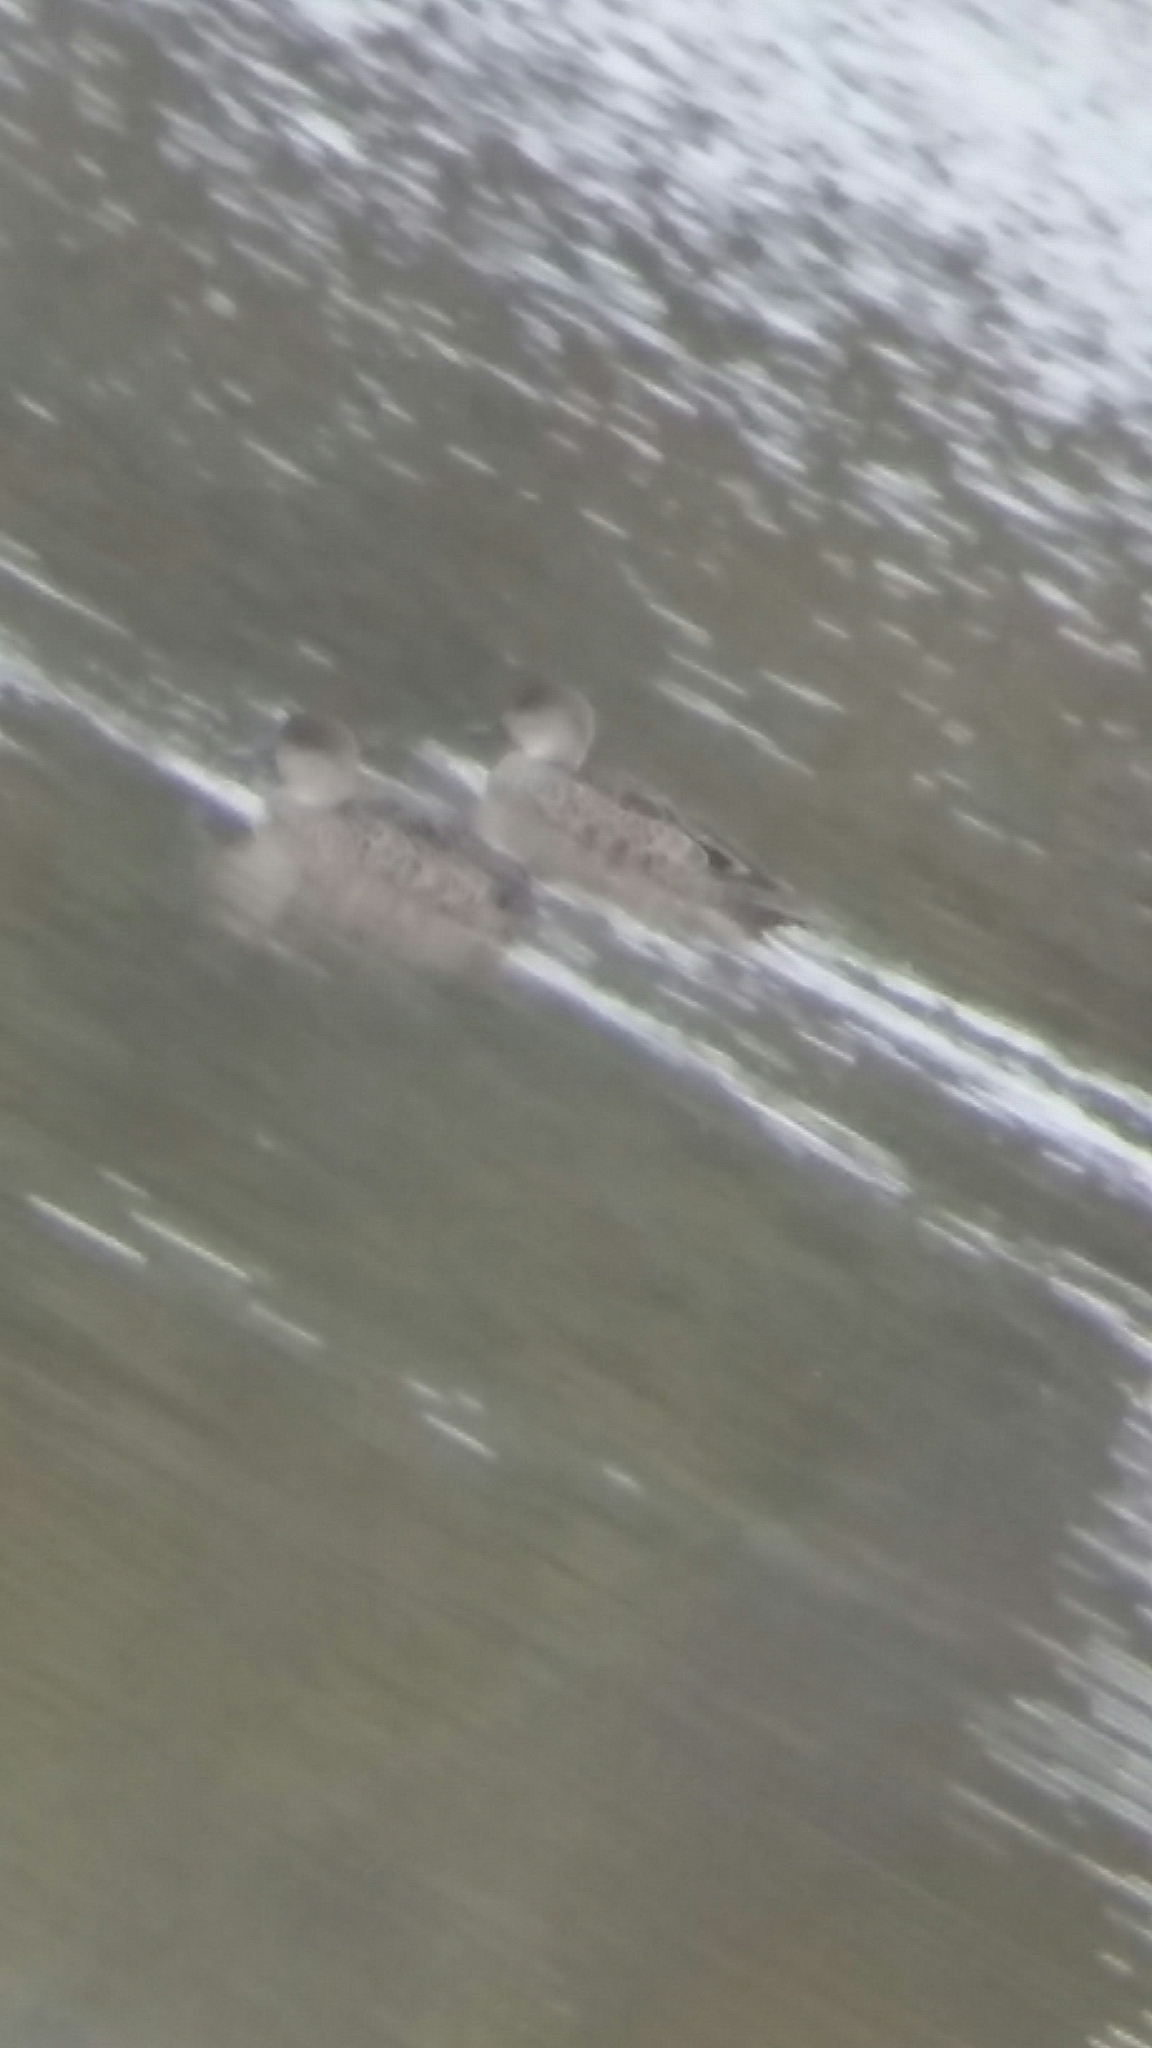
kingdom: Animalia
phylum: Chordata
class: Aves
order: Anseriformes
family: Anatidae
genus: Anas
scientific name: Anas gracilis
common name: Grey teal
